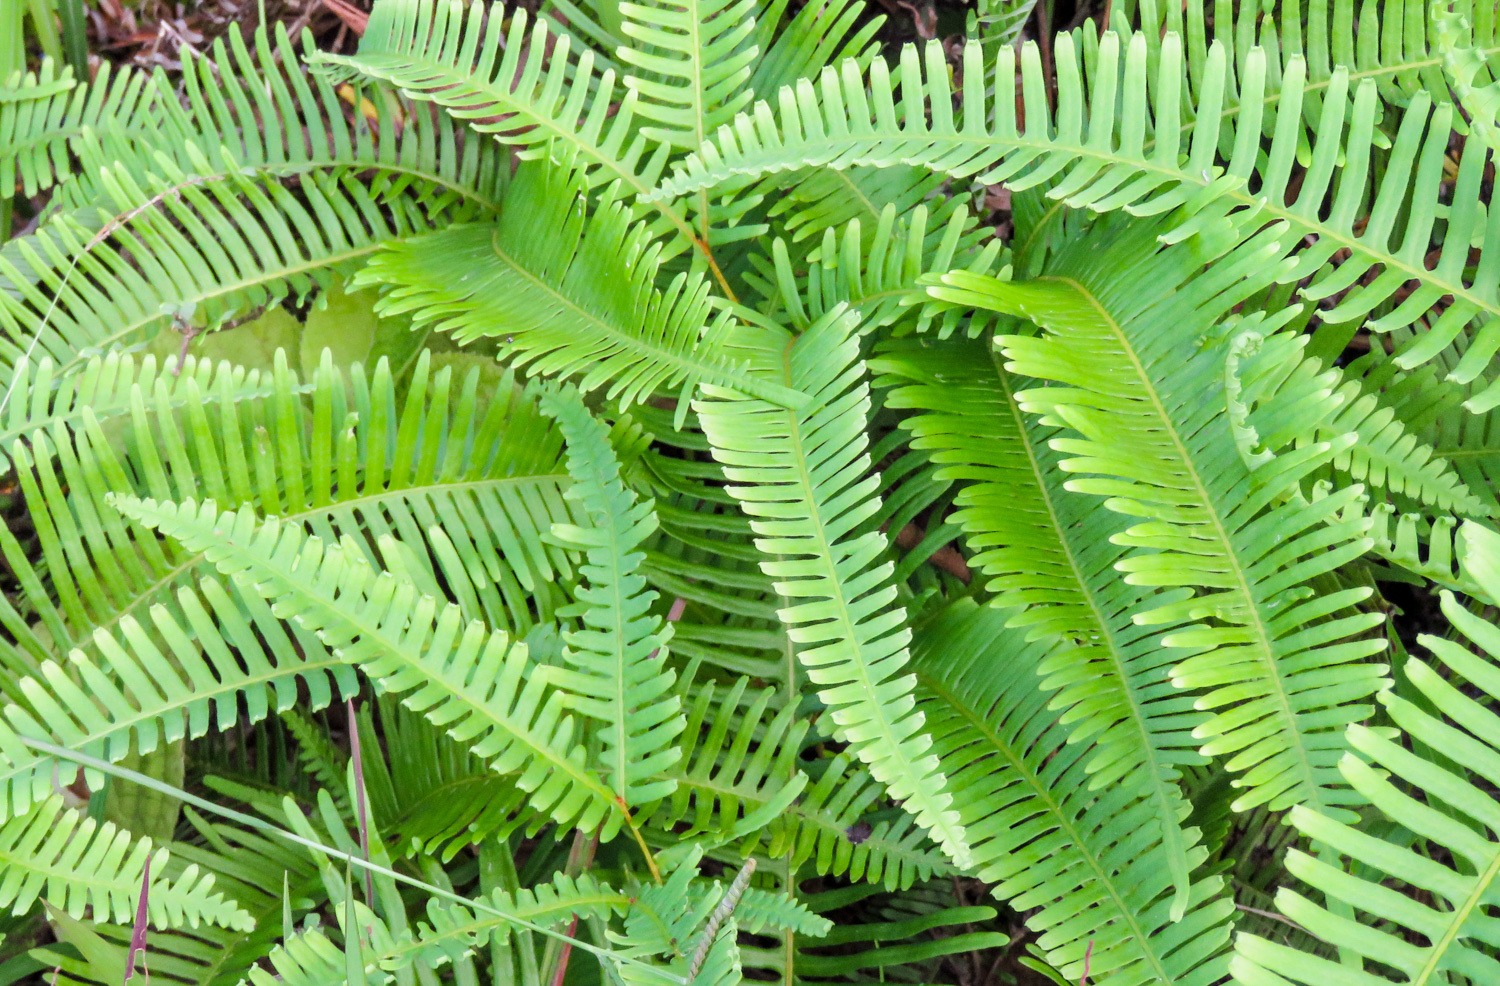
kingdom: Plantae
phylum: Tracheophyta
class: Polypodiopsida
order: Gleicheniales
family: Gleicheniaceae
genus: Dicranopteris
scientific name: Dicranopteris linearis
